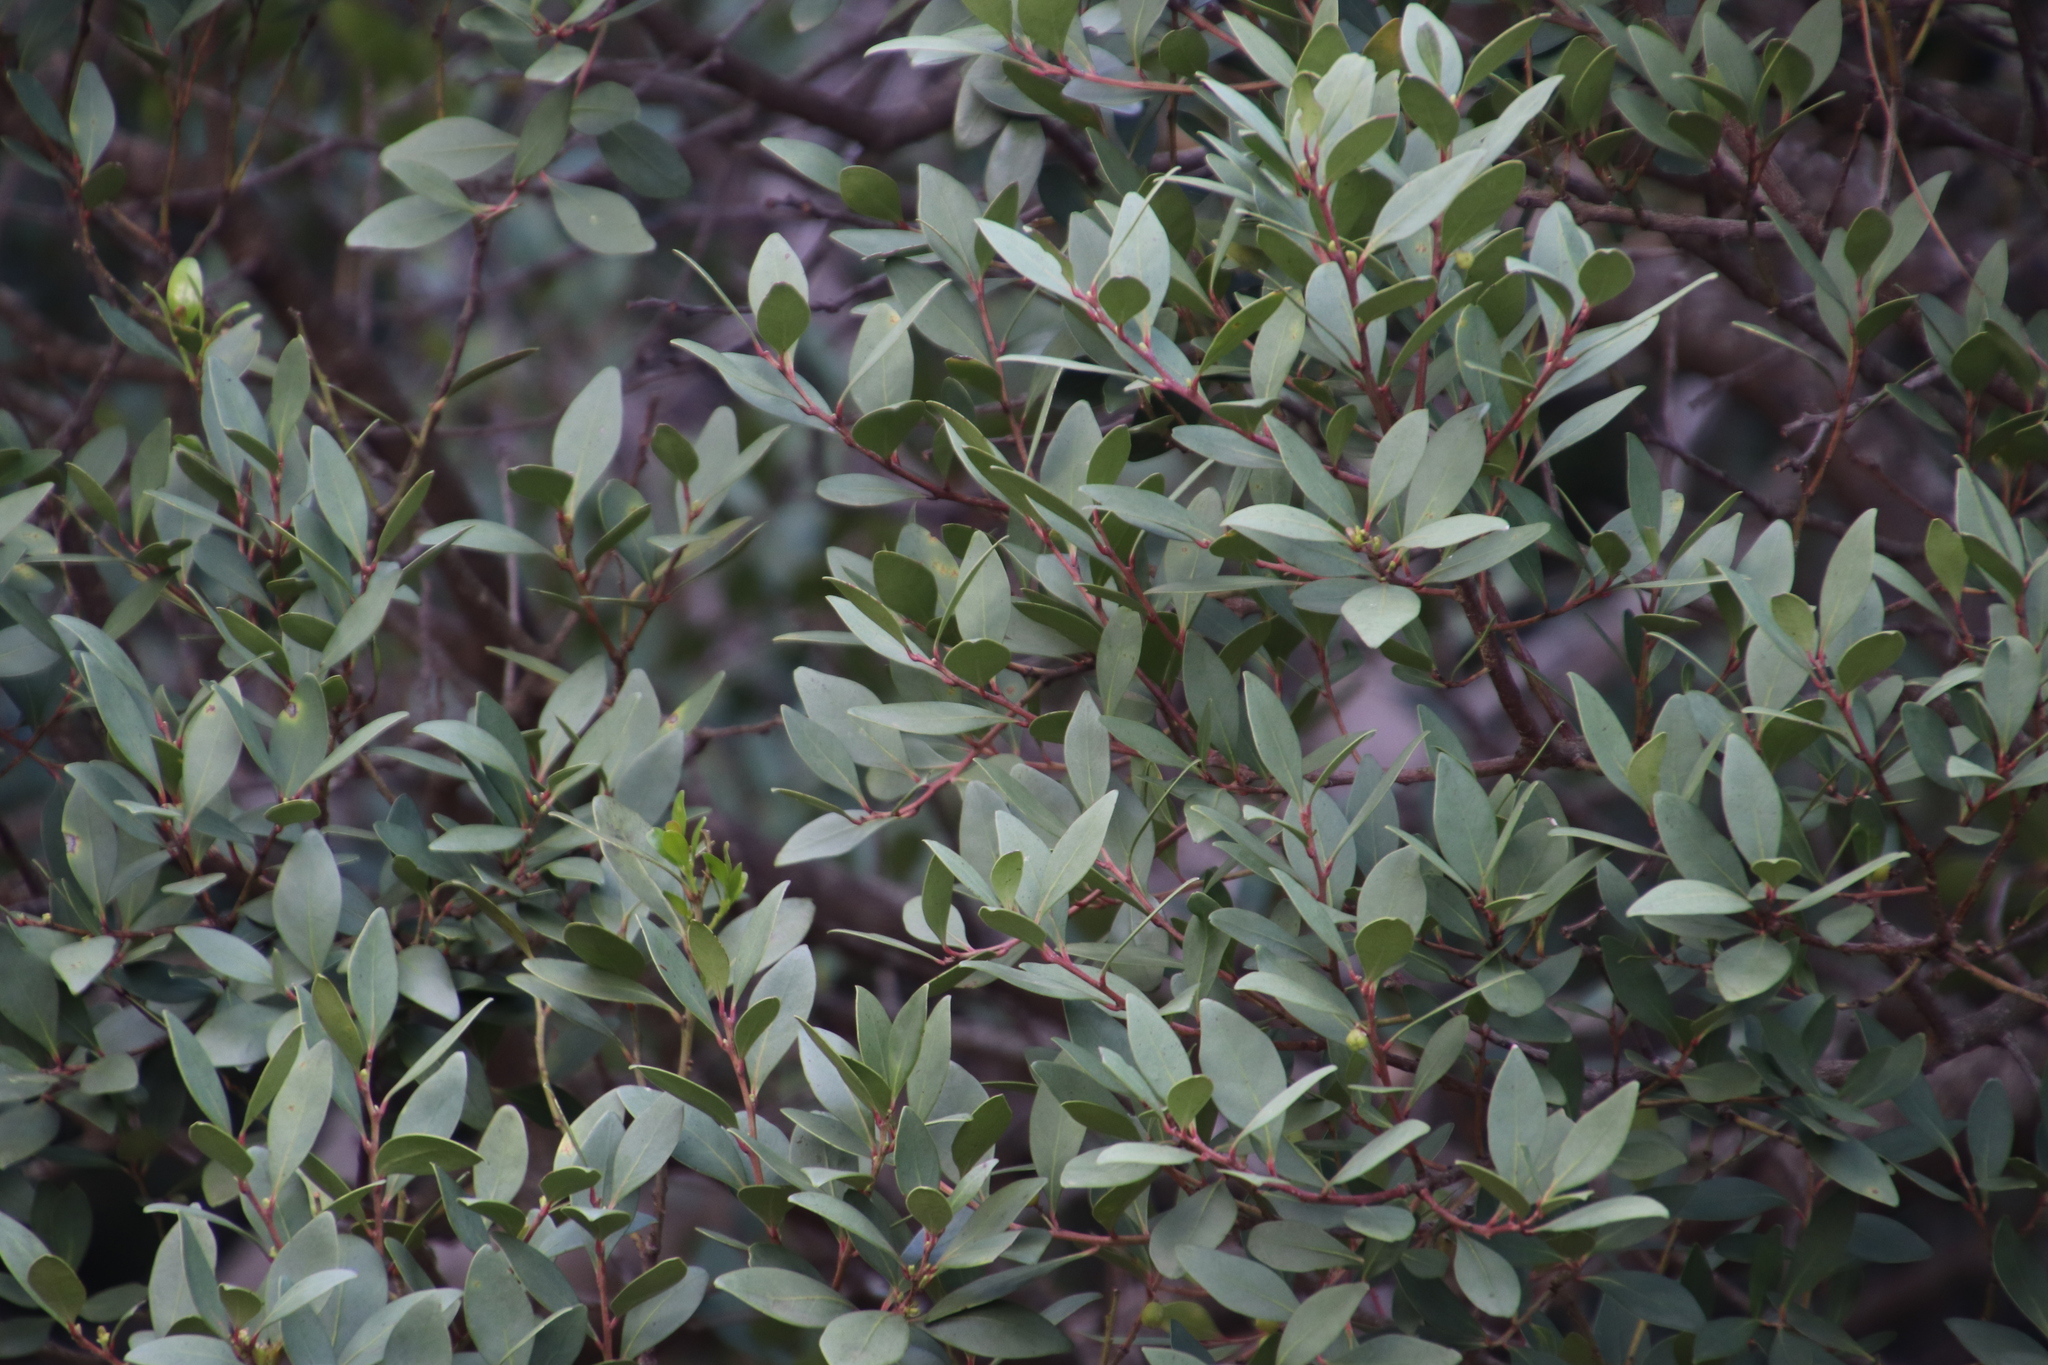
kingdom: Plantae
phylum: Tracheophyta
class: Magnoliopsida
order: Celastrales
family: Celastraceae
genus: Gymnosporia
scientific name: Gymnosporia laurina
